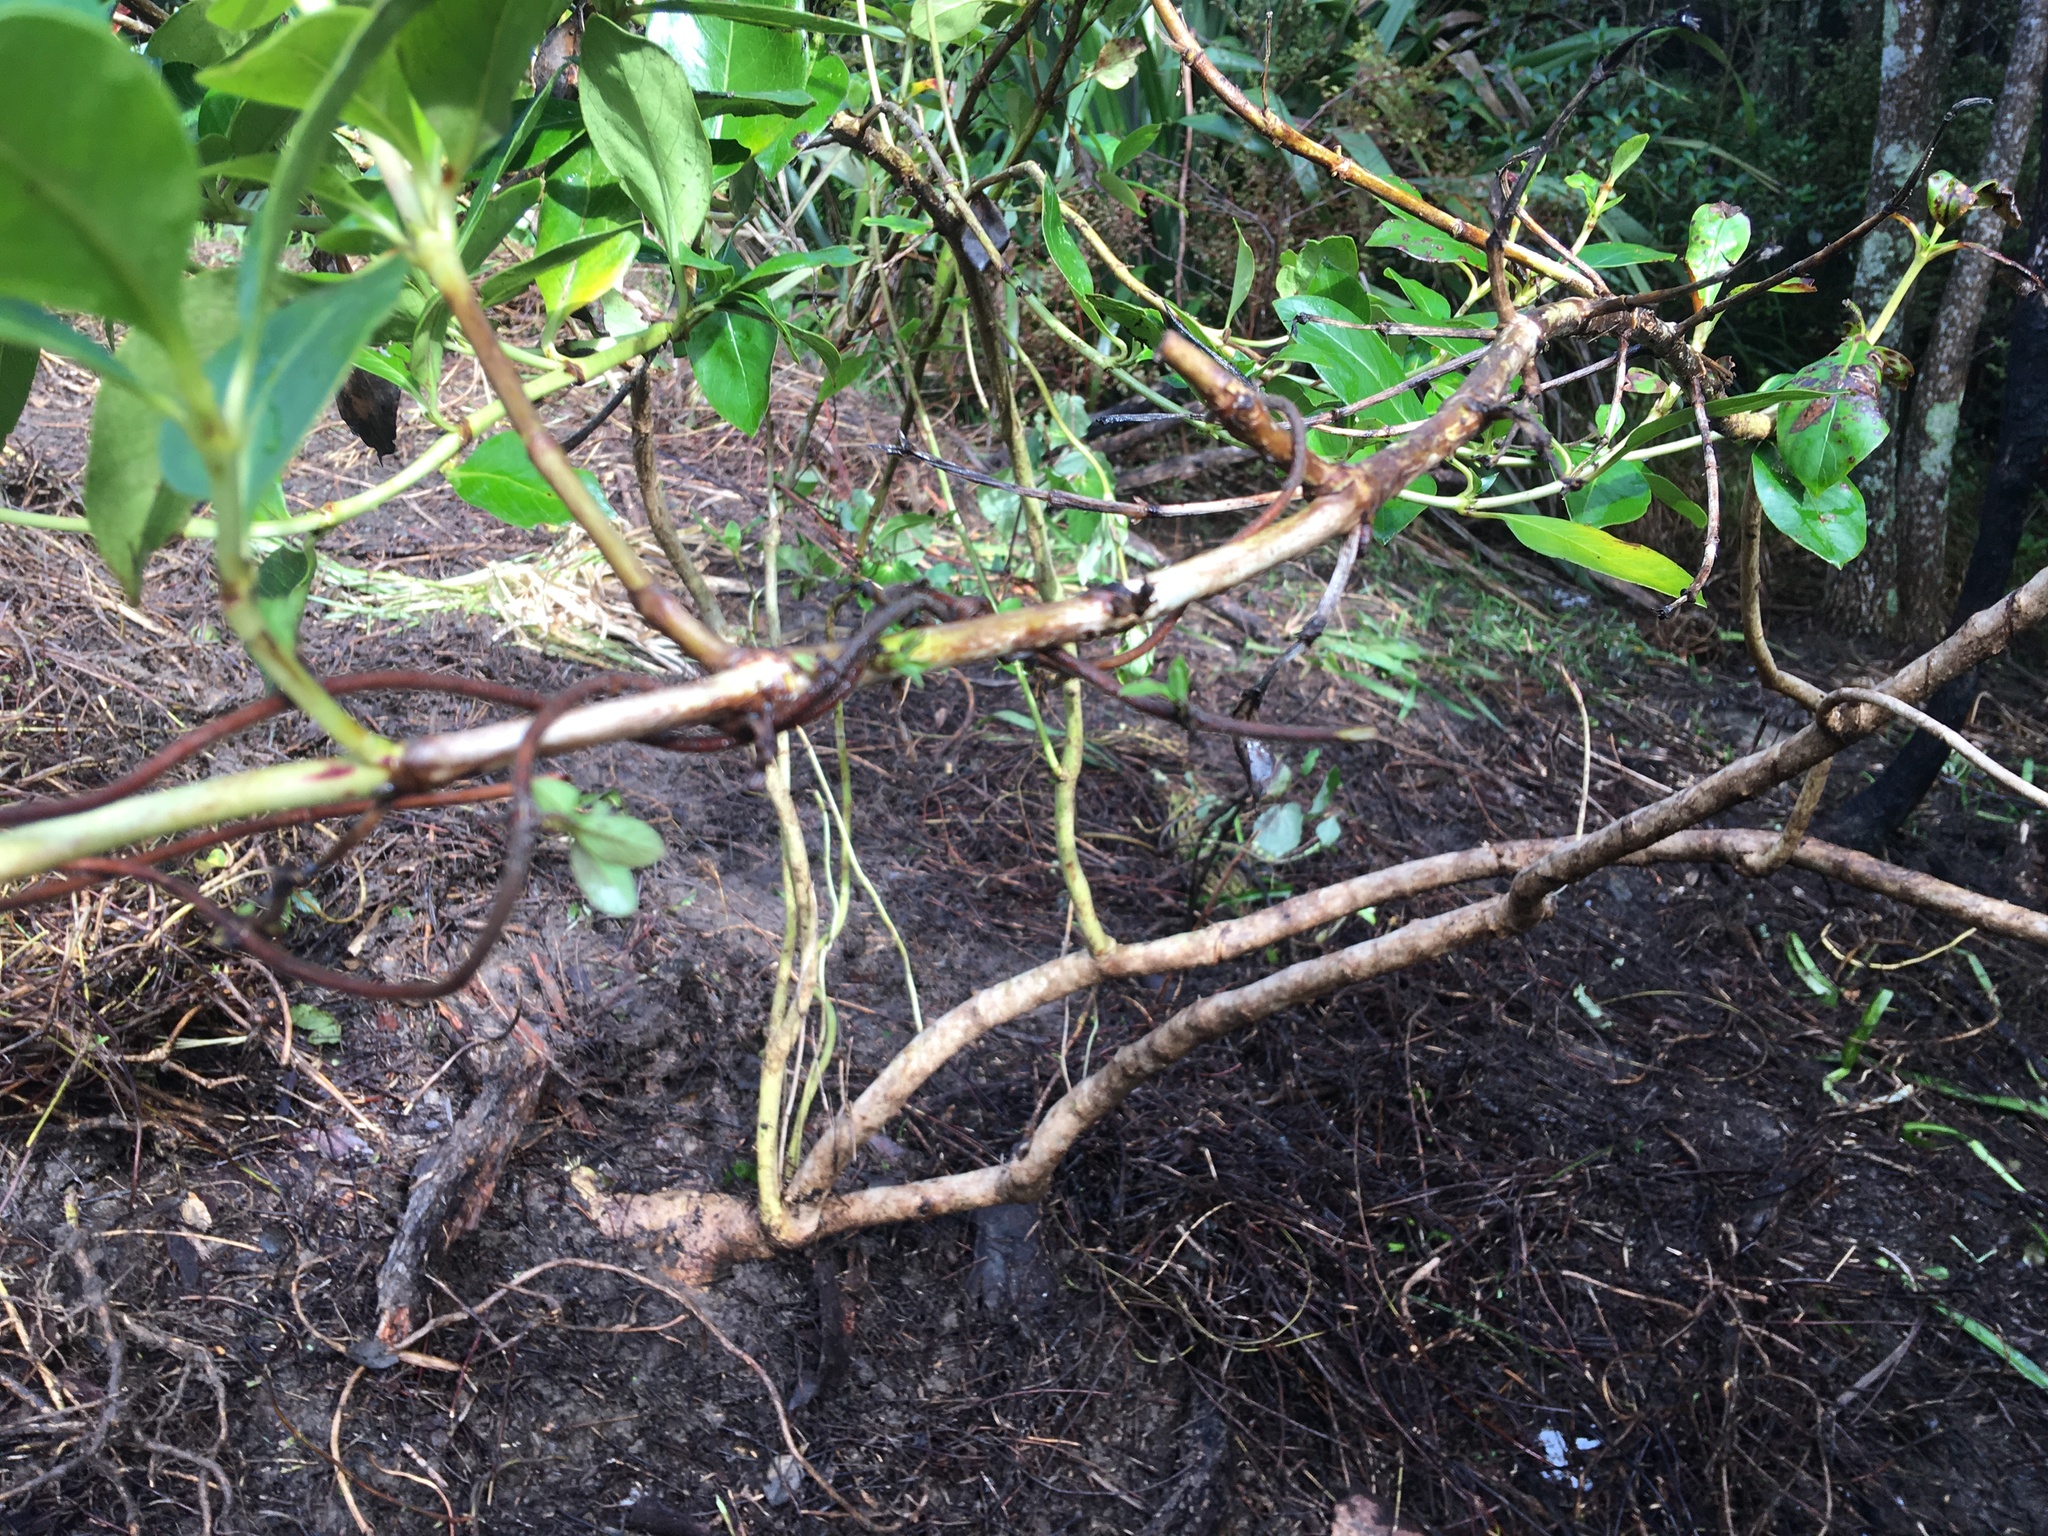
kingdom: Plantae
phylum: Tracheophyta
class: Magnoliopsida
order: Dipsacales
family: Caprifoliaceae
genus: Lonicera
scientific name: Lonicera japonica
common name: Japanese honeysuckle
